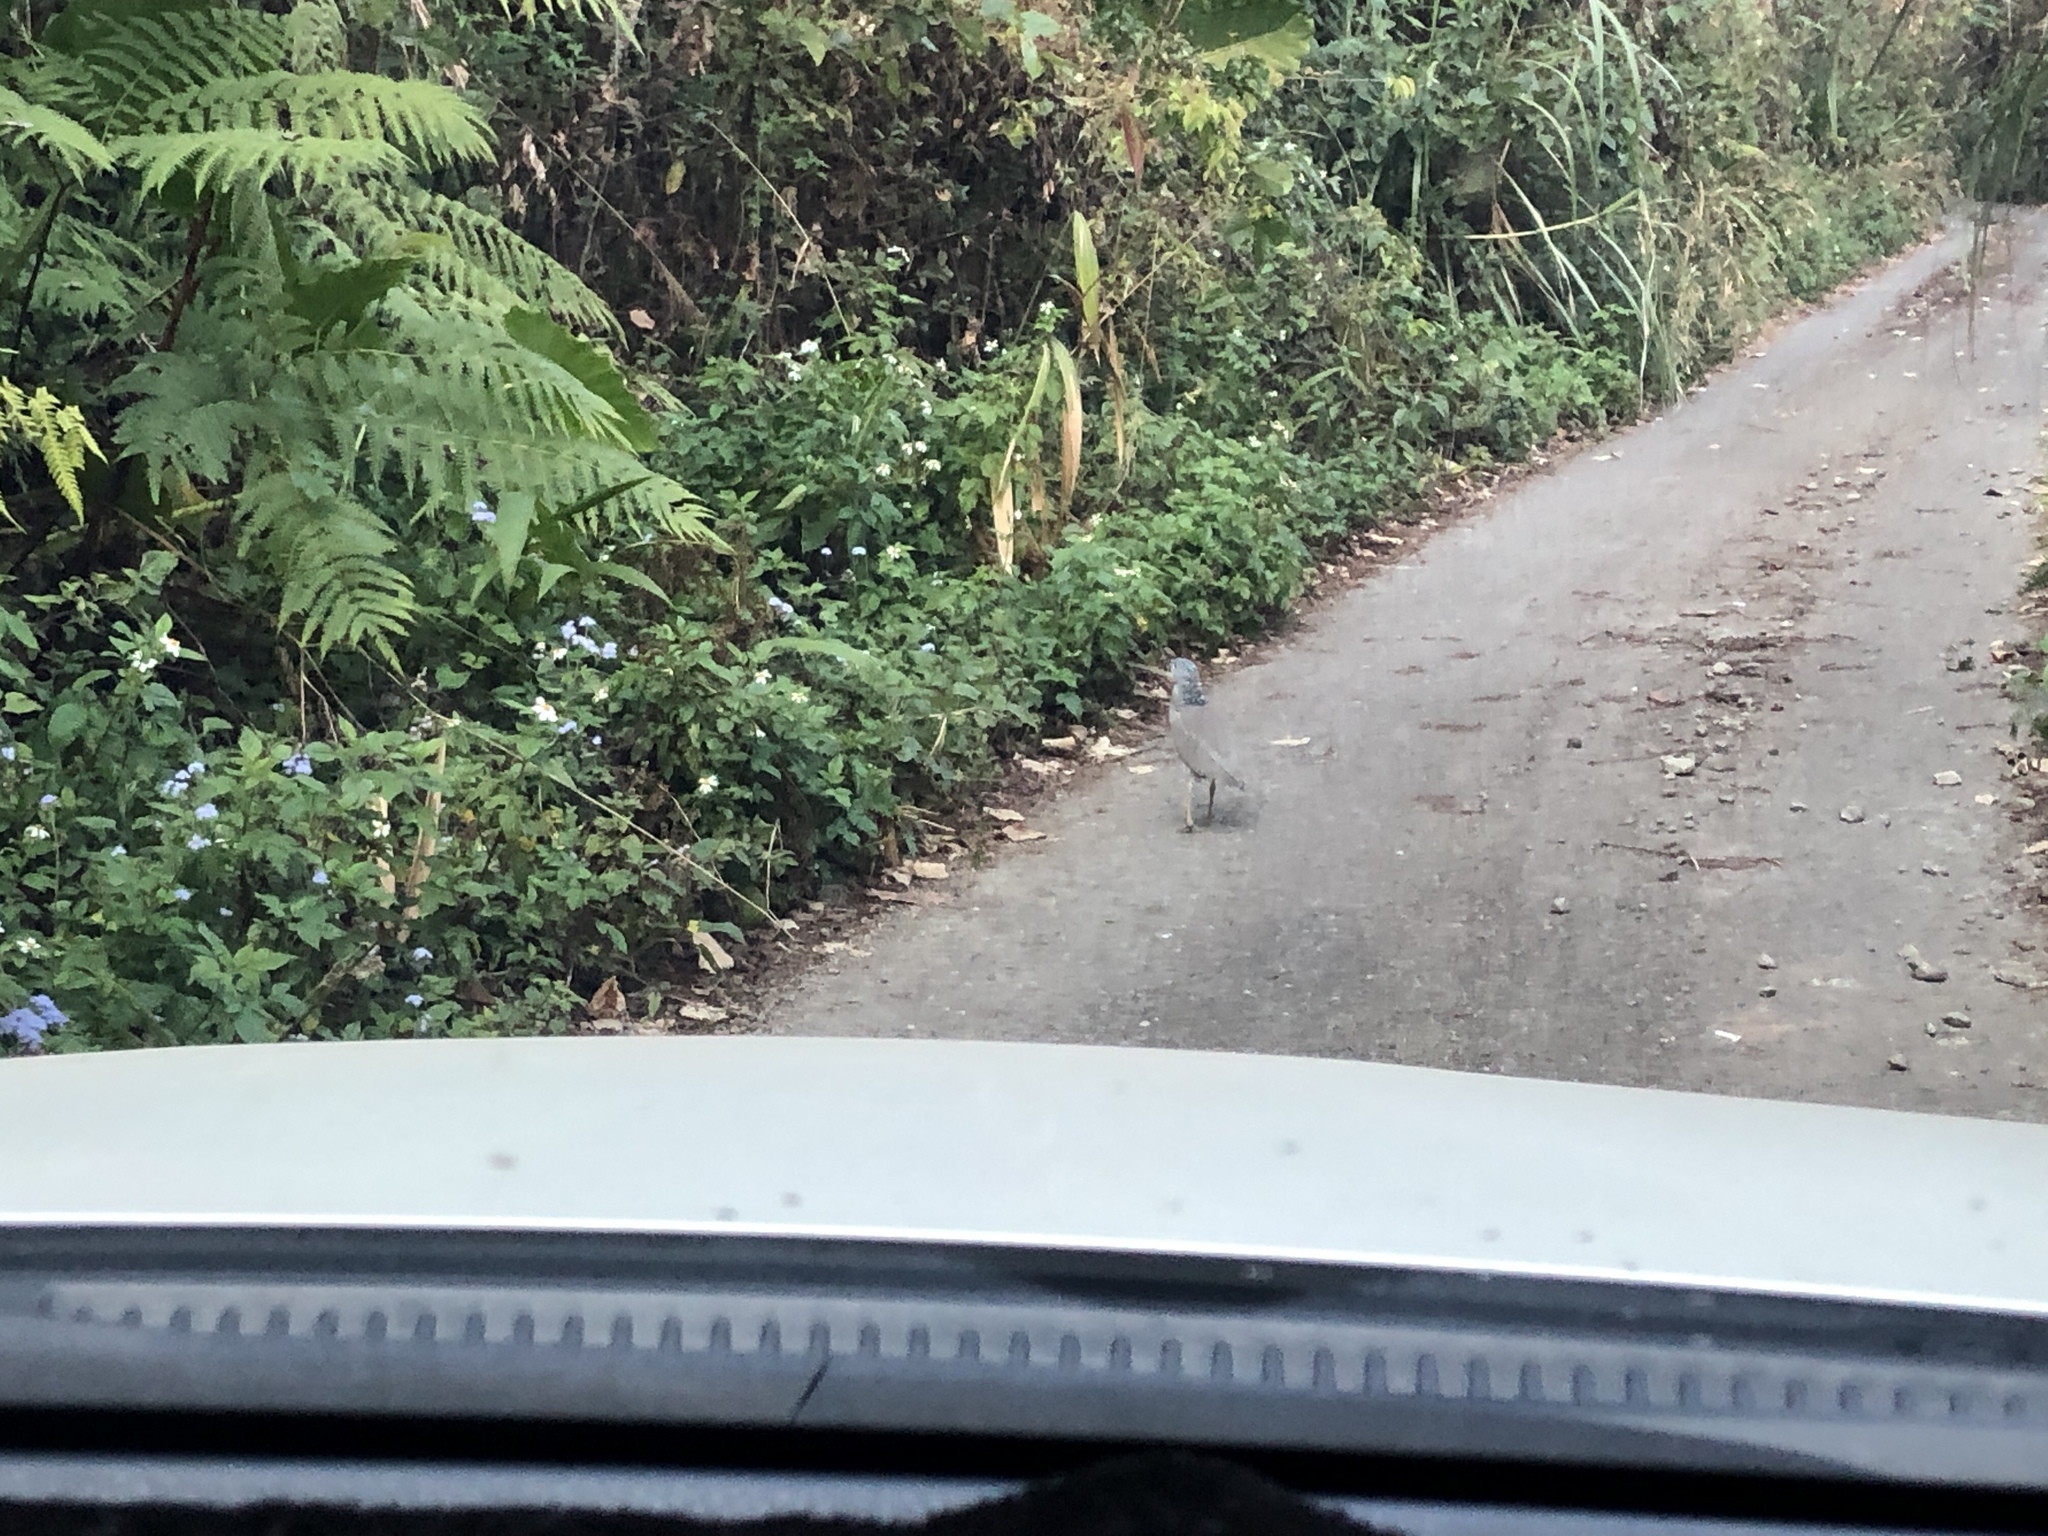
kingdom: Animalia
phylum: Chordata
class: Aves
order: Pelecaniformes
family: Ardeidae
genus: Gorsachius
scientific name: Gorsachius melanolophus
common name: Malayan night heron
